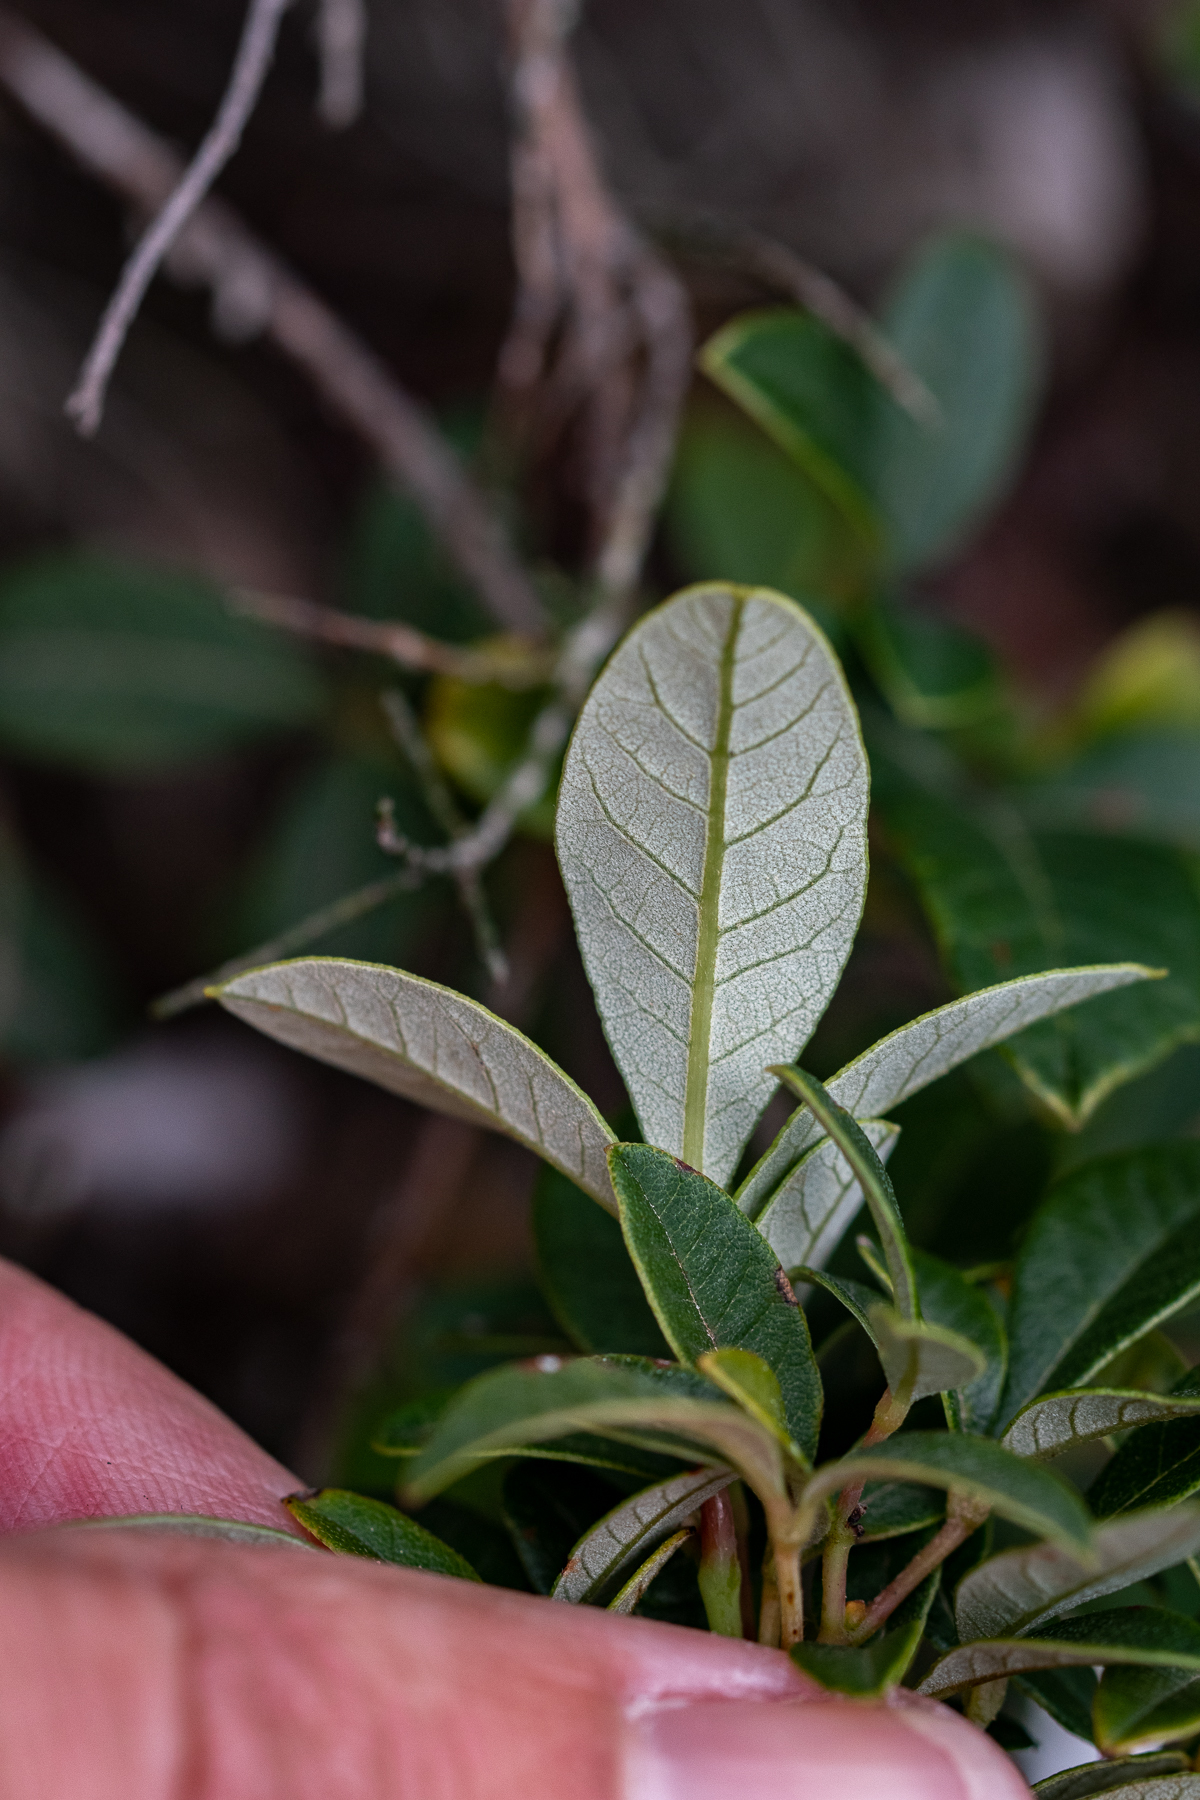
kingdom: Plantae
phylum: Tracheophyta
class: Magnoliopsida
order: Sapindales
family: Anacardiaceae
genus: Searsia
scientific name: Searsia tomentosa
